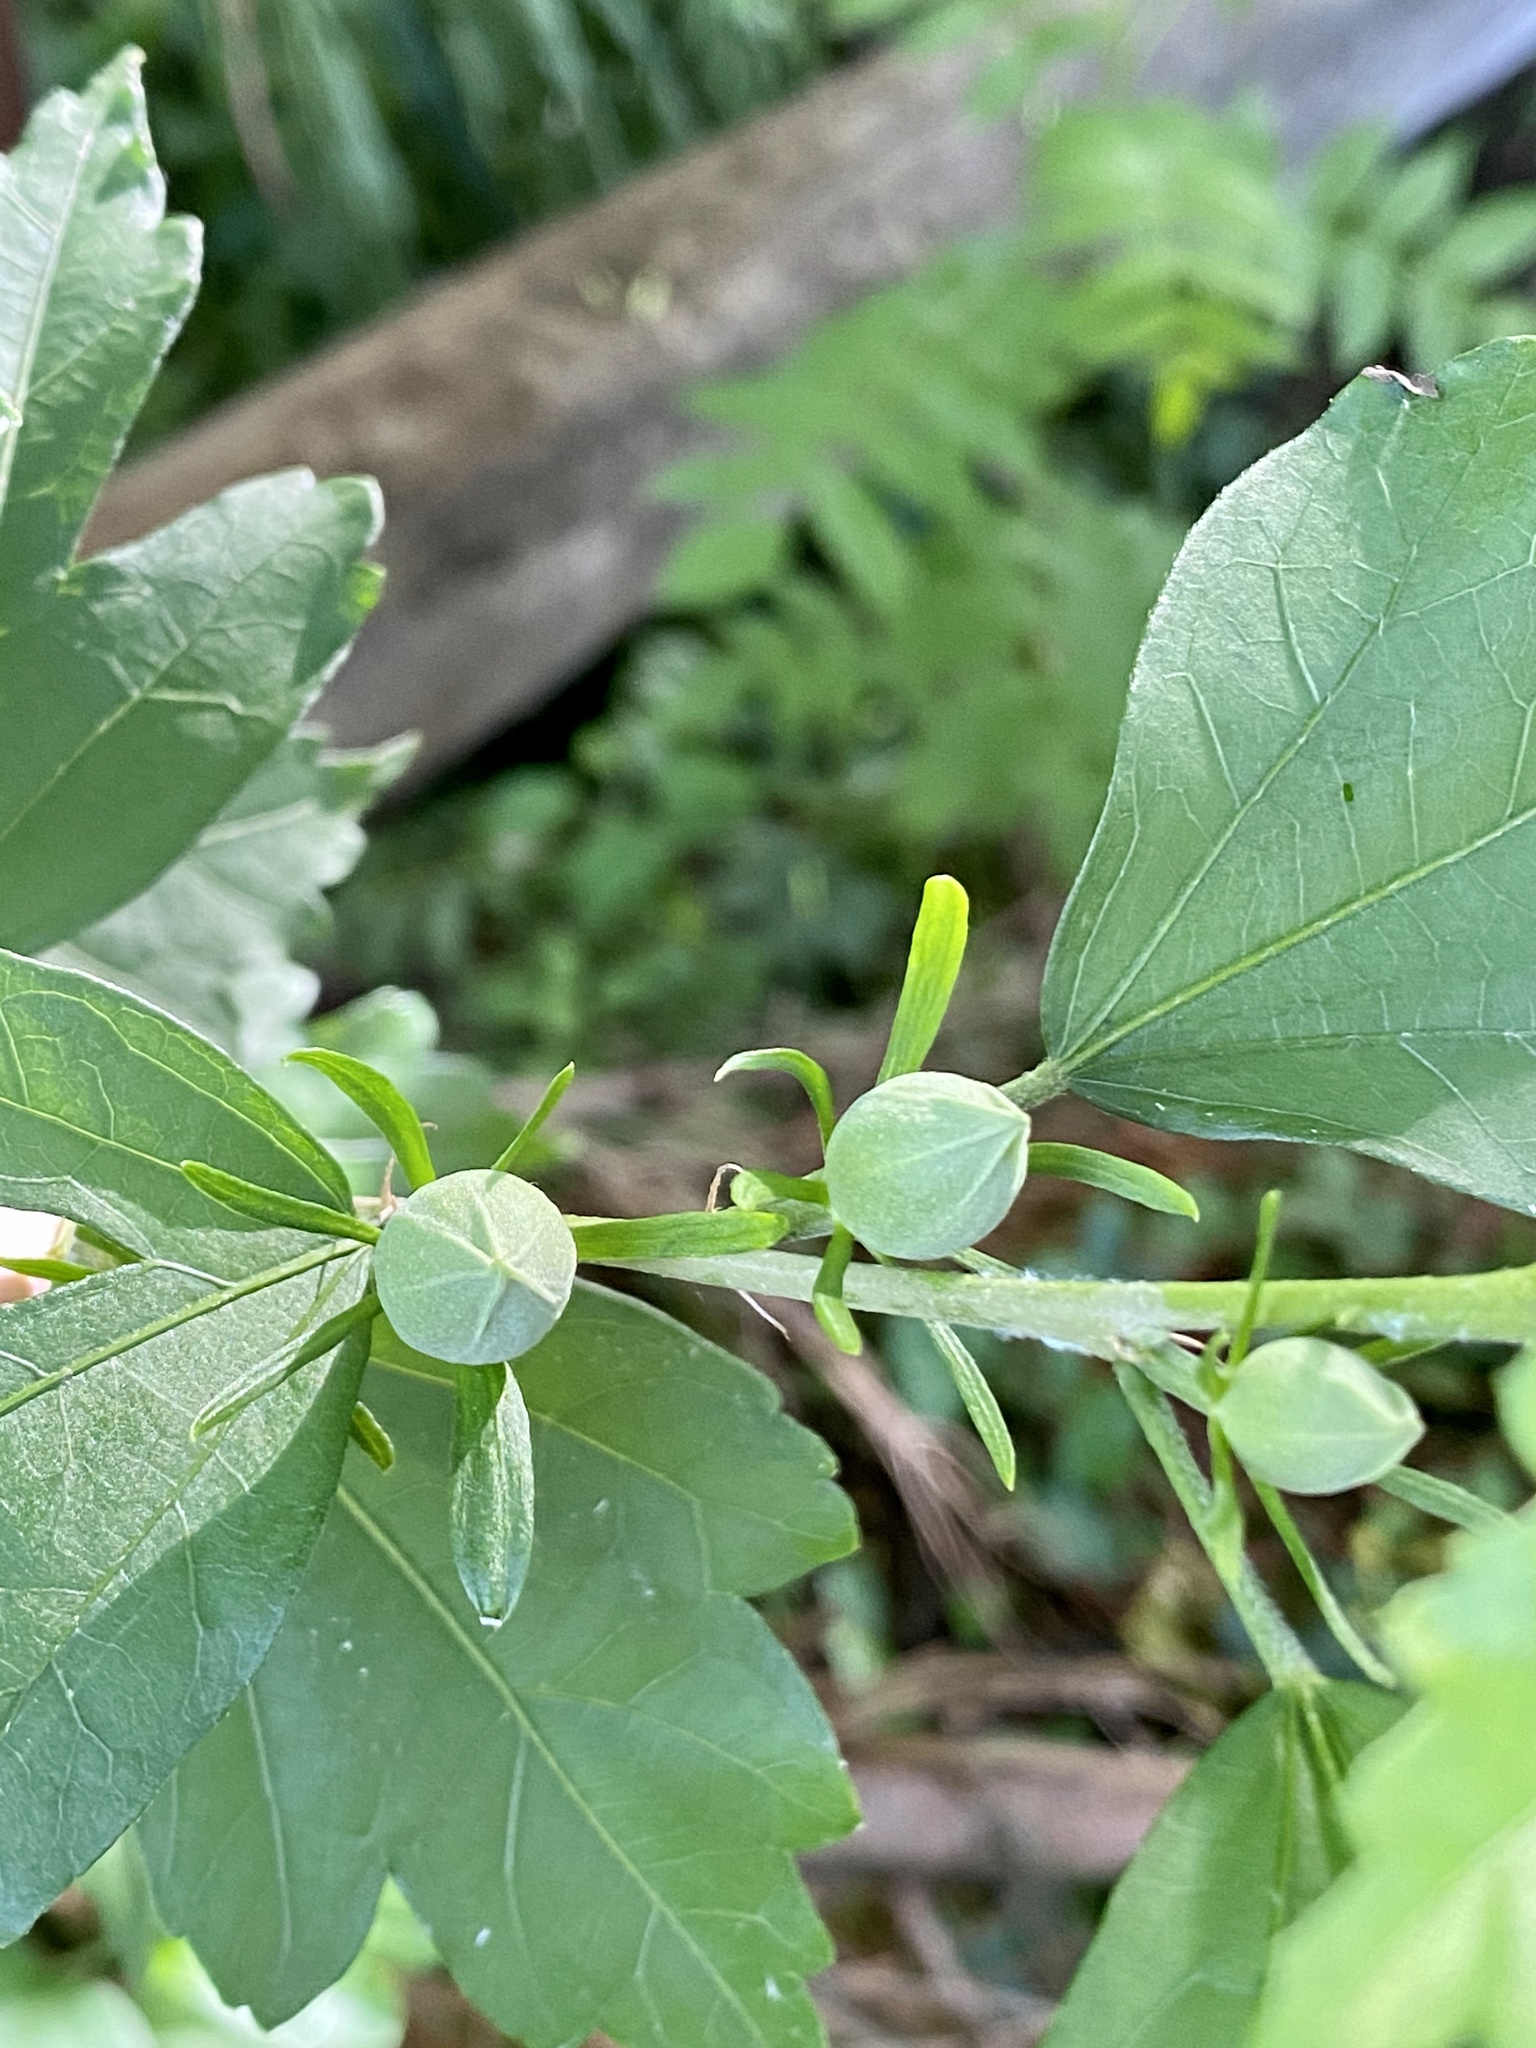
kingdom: Plantae
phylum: Tracheophyta
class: Magnoliopsida
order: Malvales
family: Malvaceae
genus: Hibiscus
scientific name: Hibiscus syriacus
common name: Syrian ketmia
